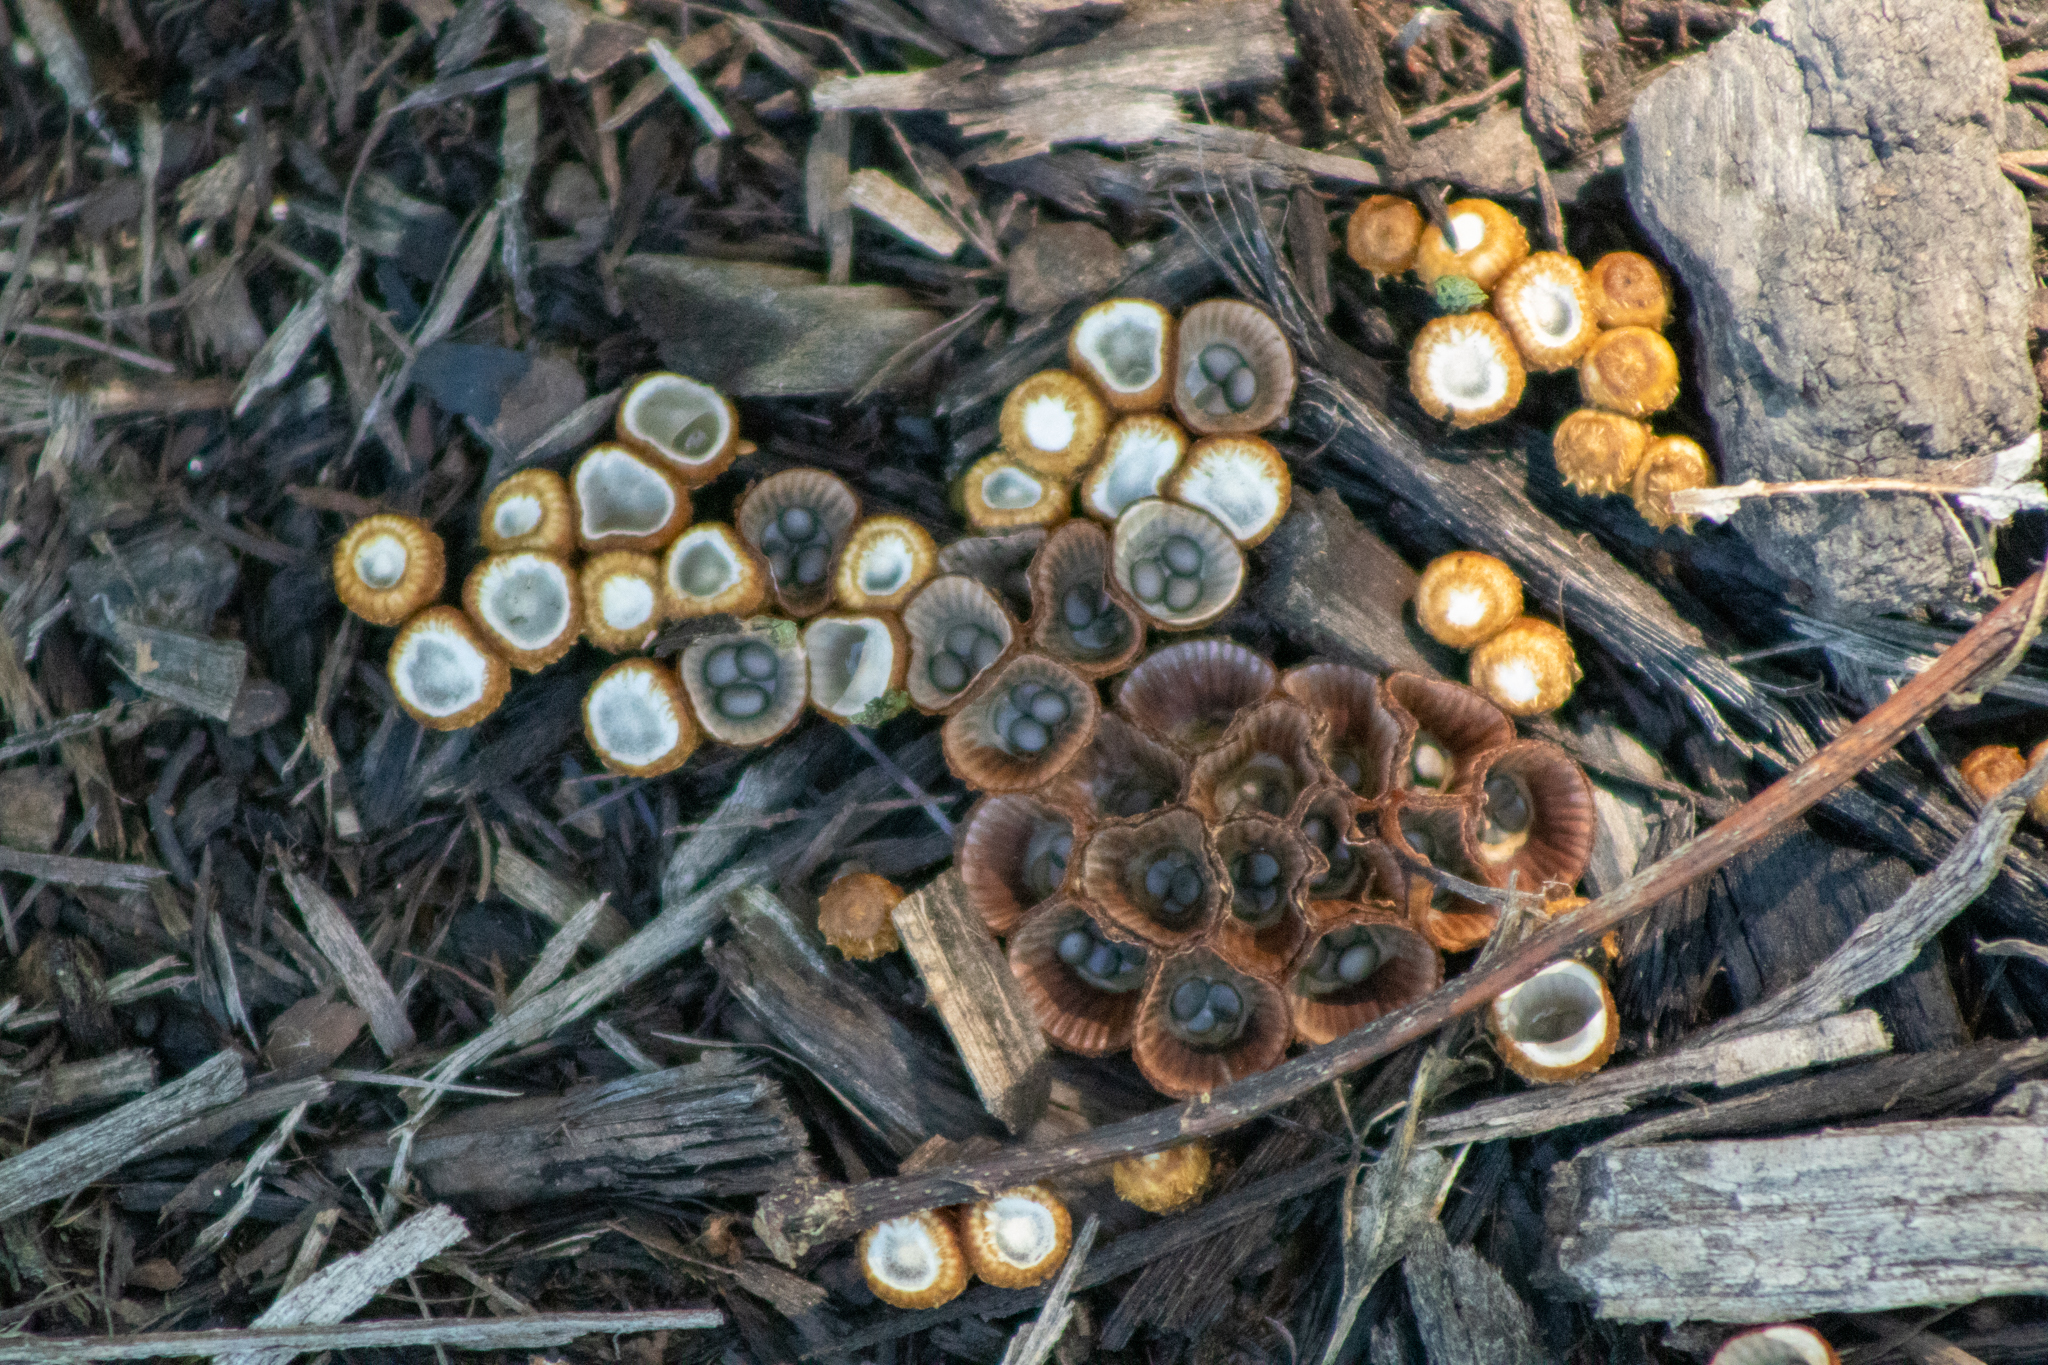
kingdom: Fungi
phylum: Basidiomycota
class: Agaricomycetes
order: Agaricales
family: Agaricaceae
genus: Cyathus
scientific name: Cyathus striatus
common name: Fluted bird's nest
